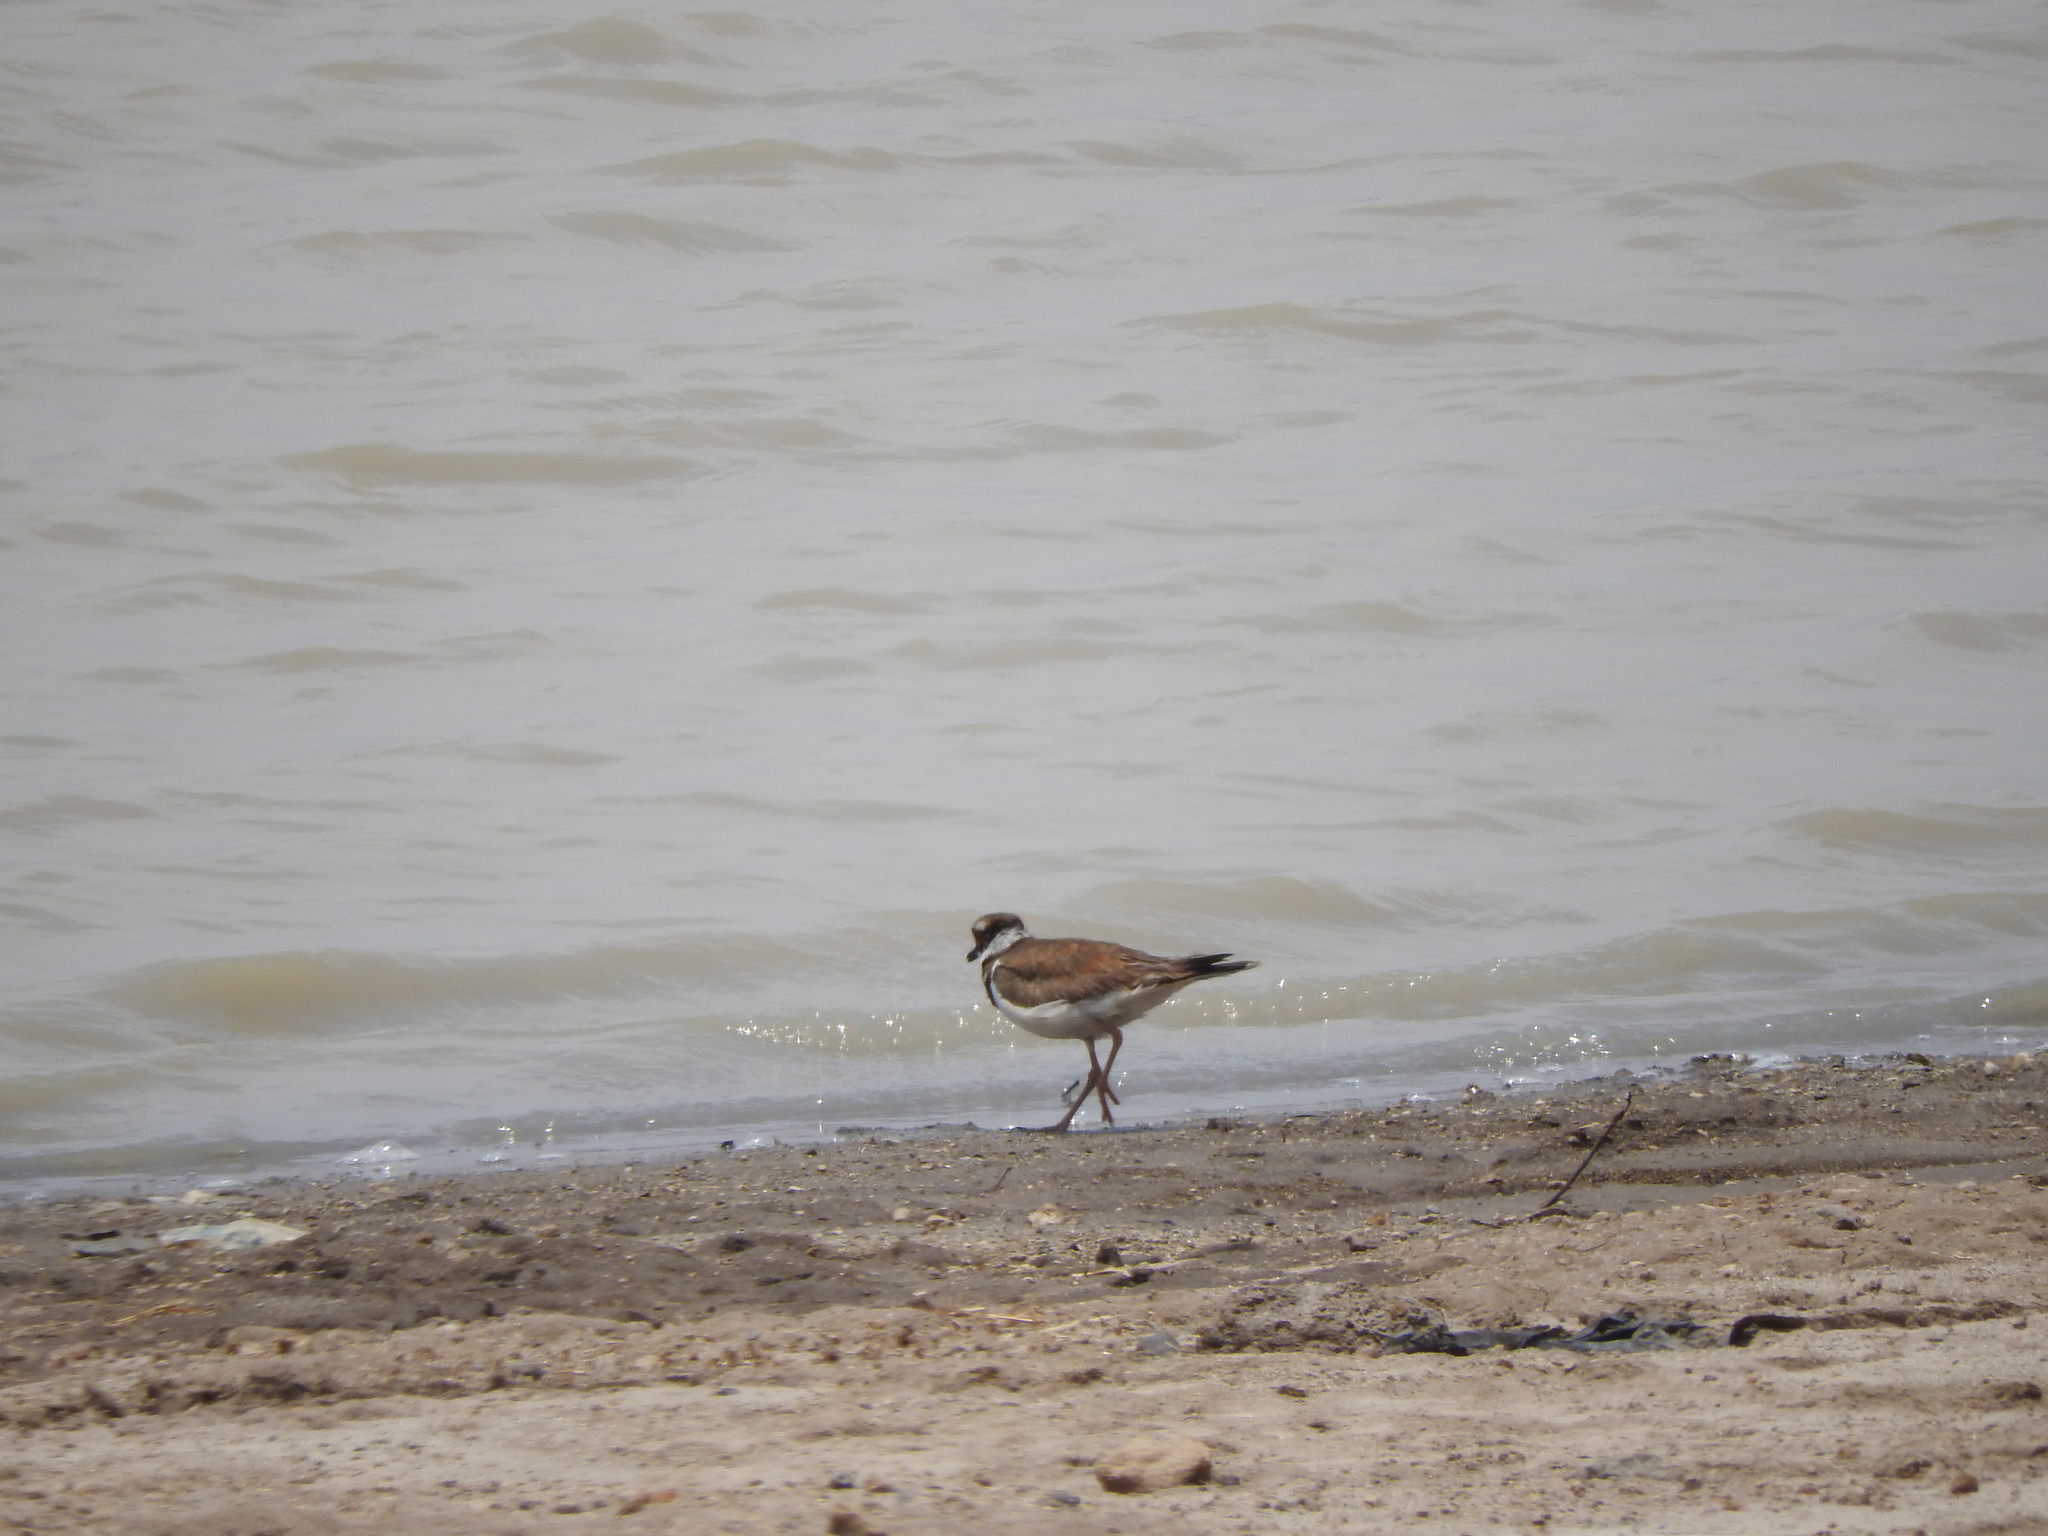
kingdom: Animalia
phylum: Chordata
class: Aves
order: Charadriiformes
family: Charadriidae
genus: Charadrius
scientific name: Charadrius vociferus
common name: Killdeer
